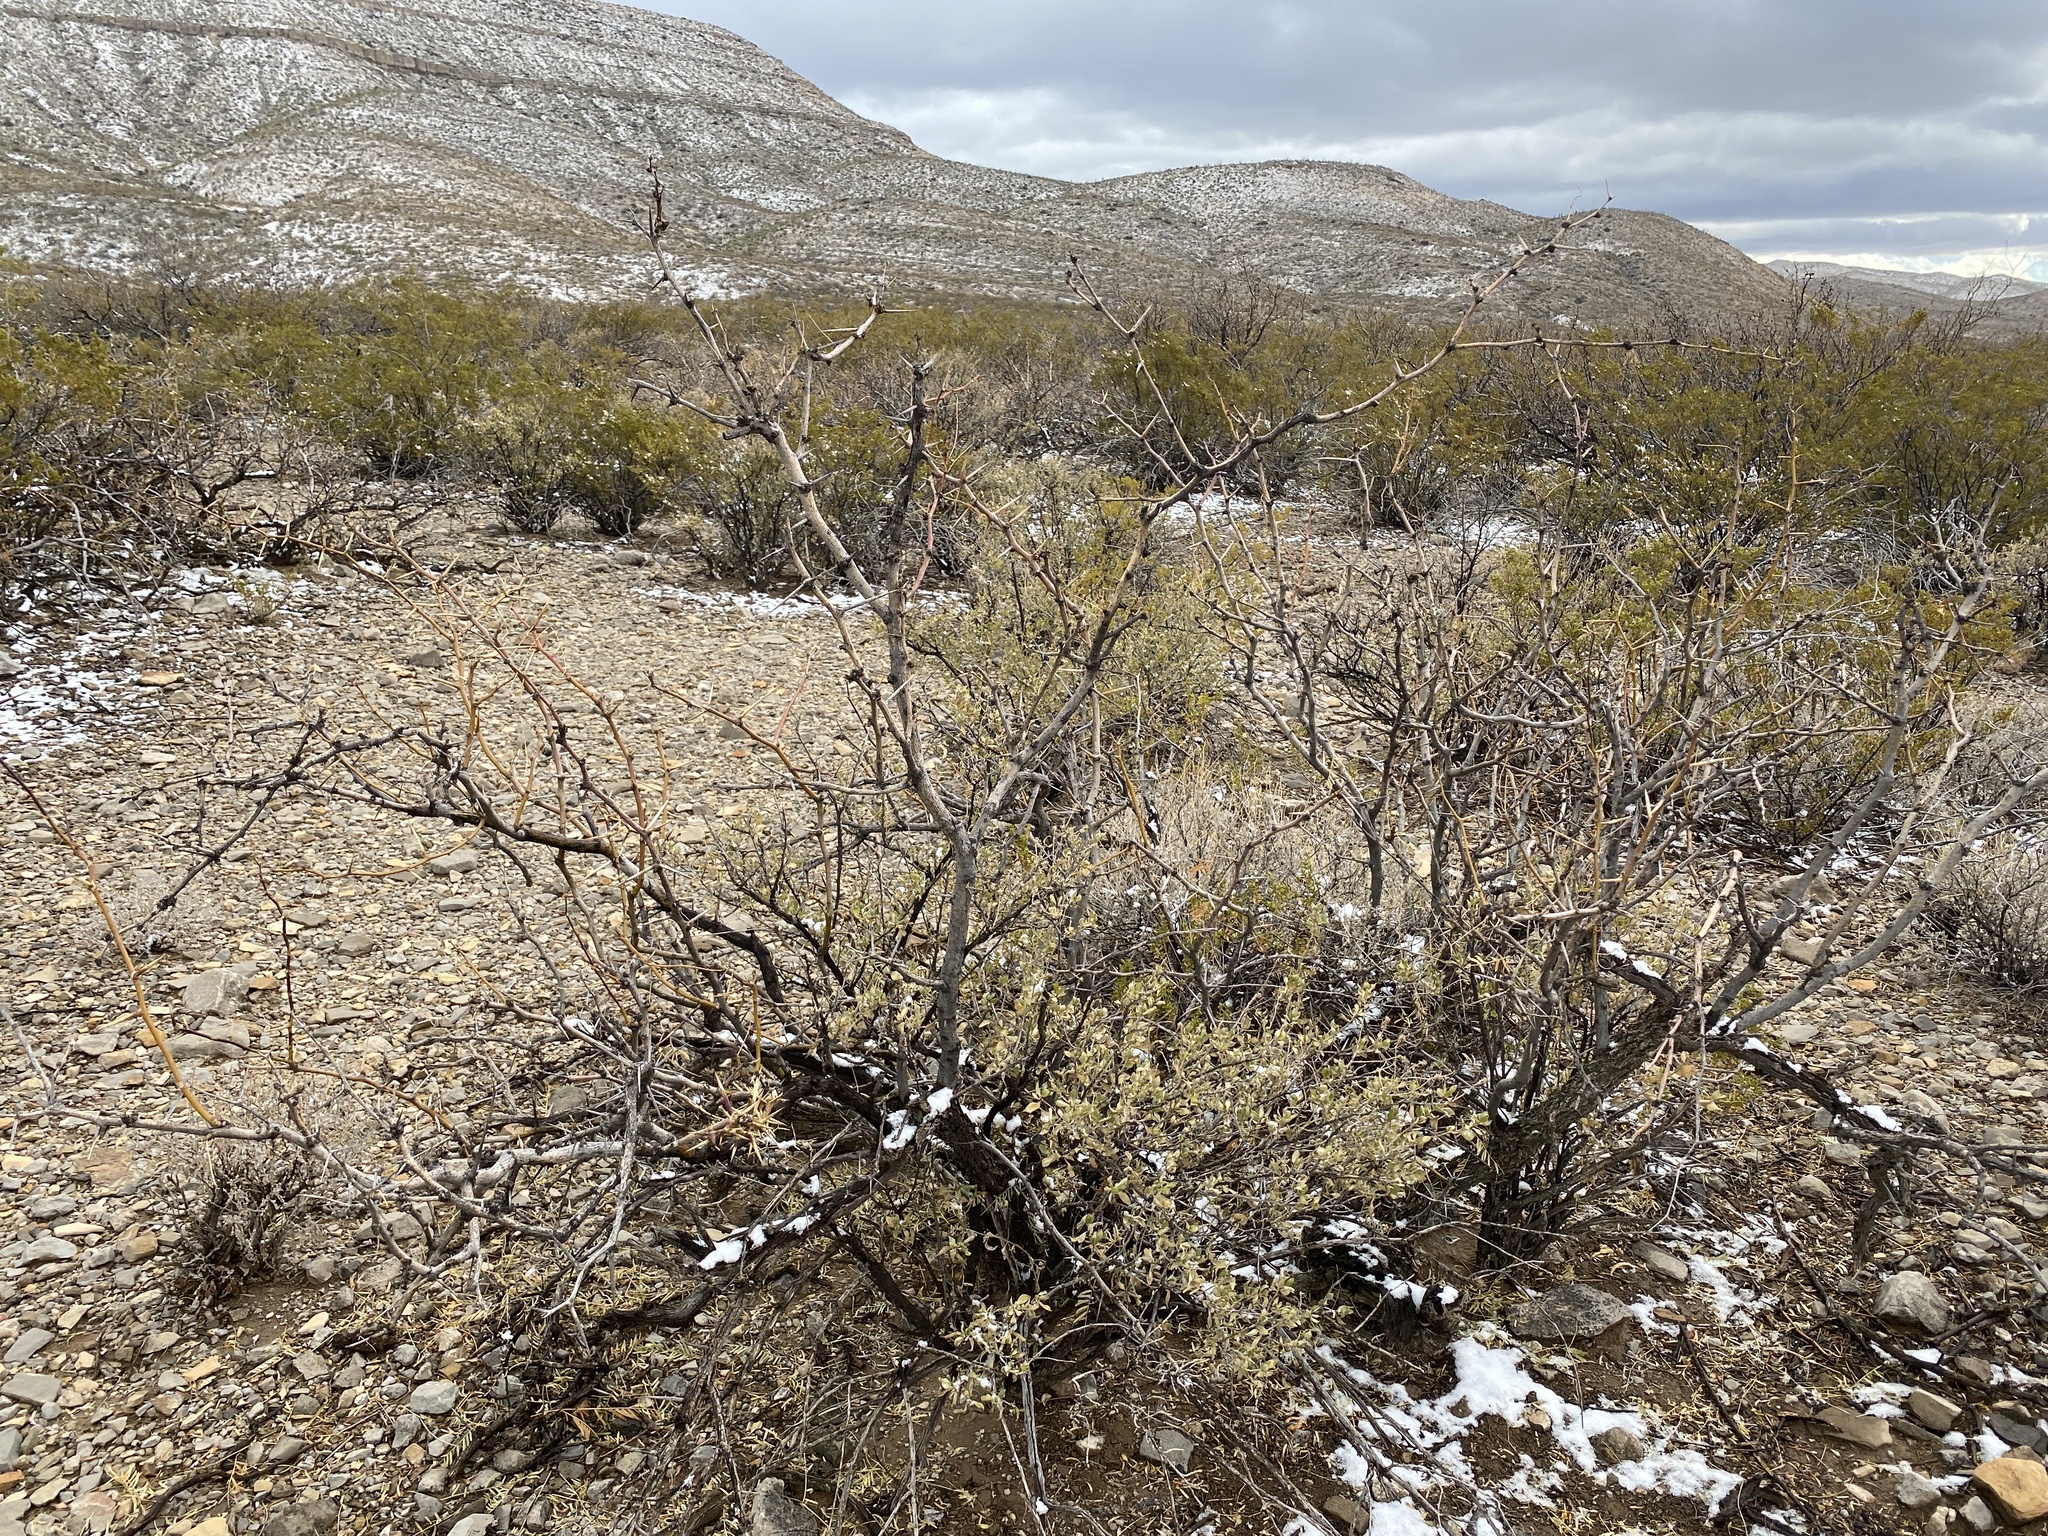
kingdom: Plantae
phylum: Tracheophyta
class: Magnoliopsida
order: Fabales
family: Fabaceae
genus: Prosopis
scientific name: Prosopis glandulosa
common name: Honey mesquite
